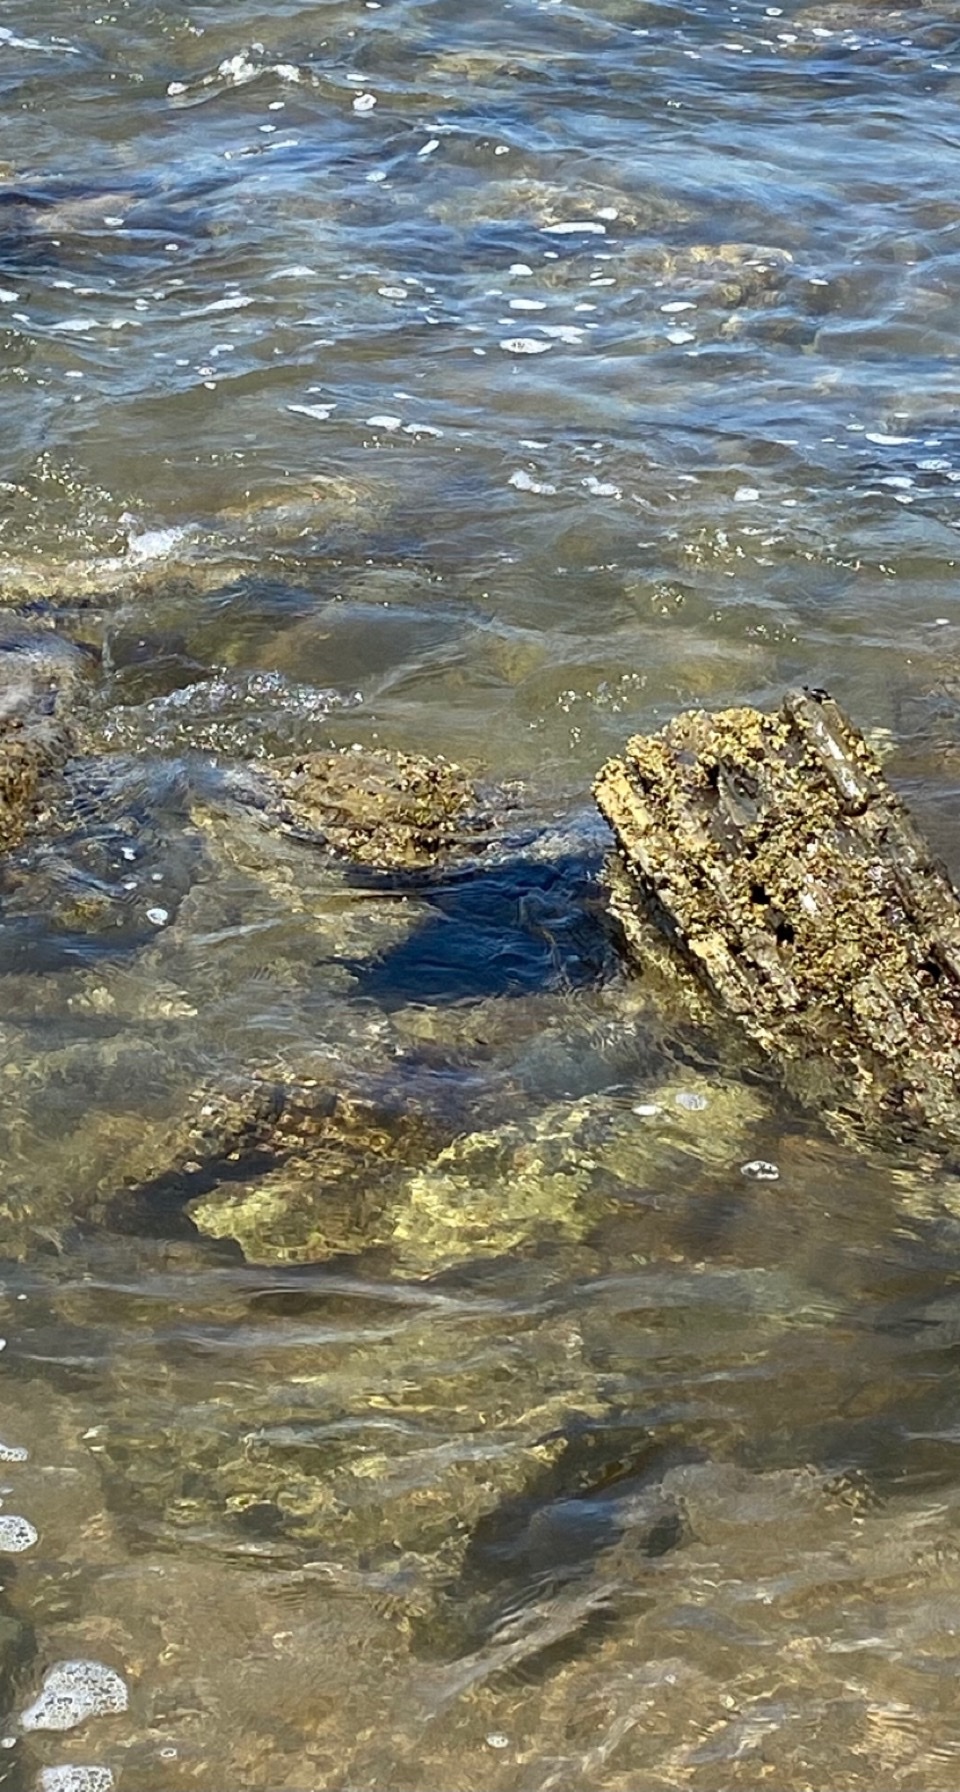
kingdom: Animalia
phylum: Mollusca
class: Gastropoda
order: Aplysiida
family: Aplysiidae
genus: Aplysia
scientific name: Aplysia vaccaria
